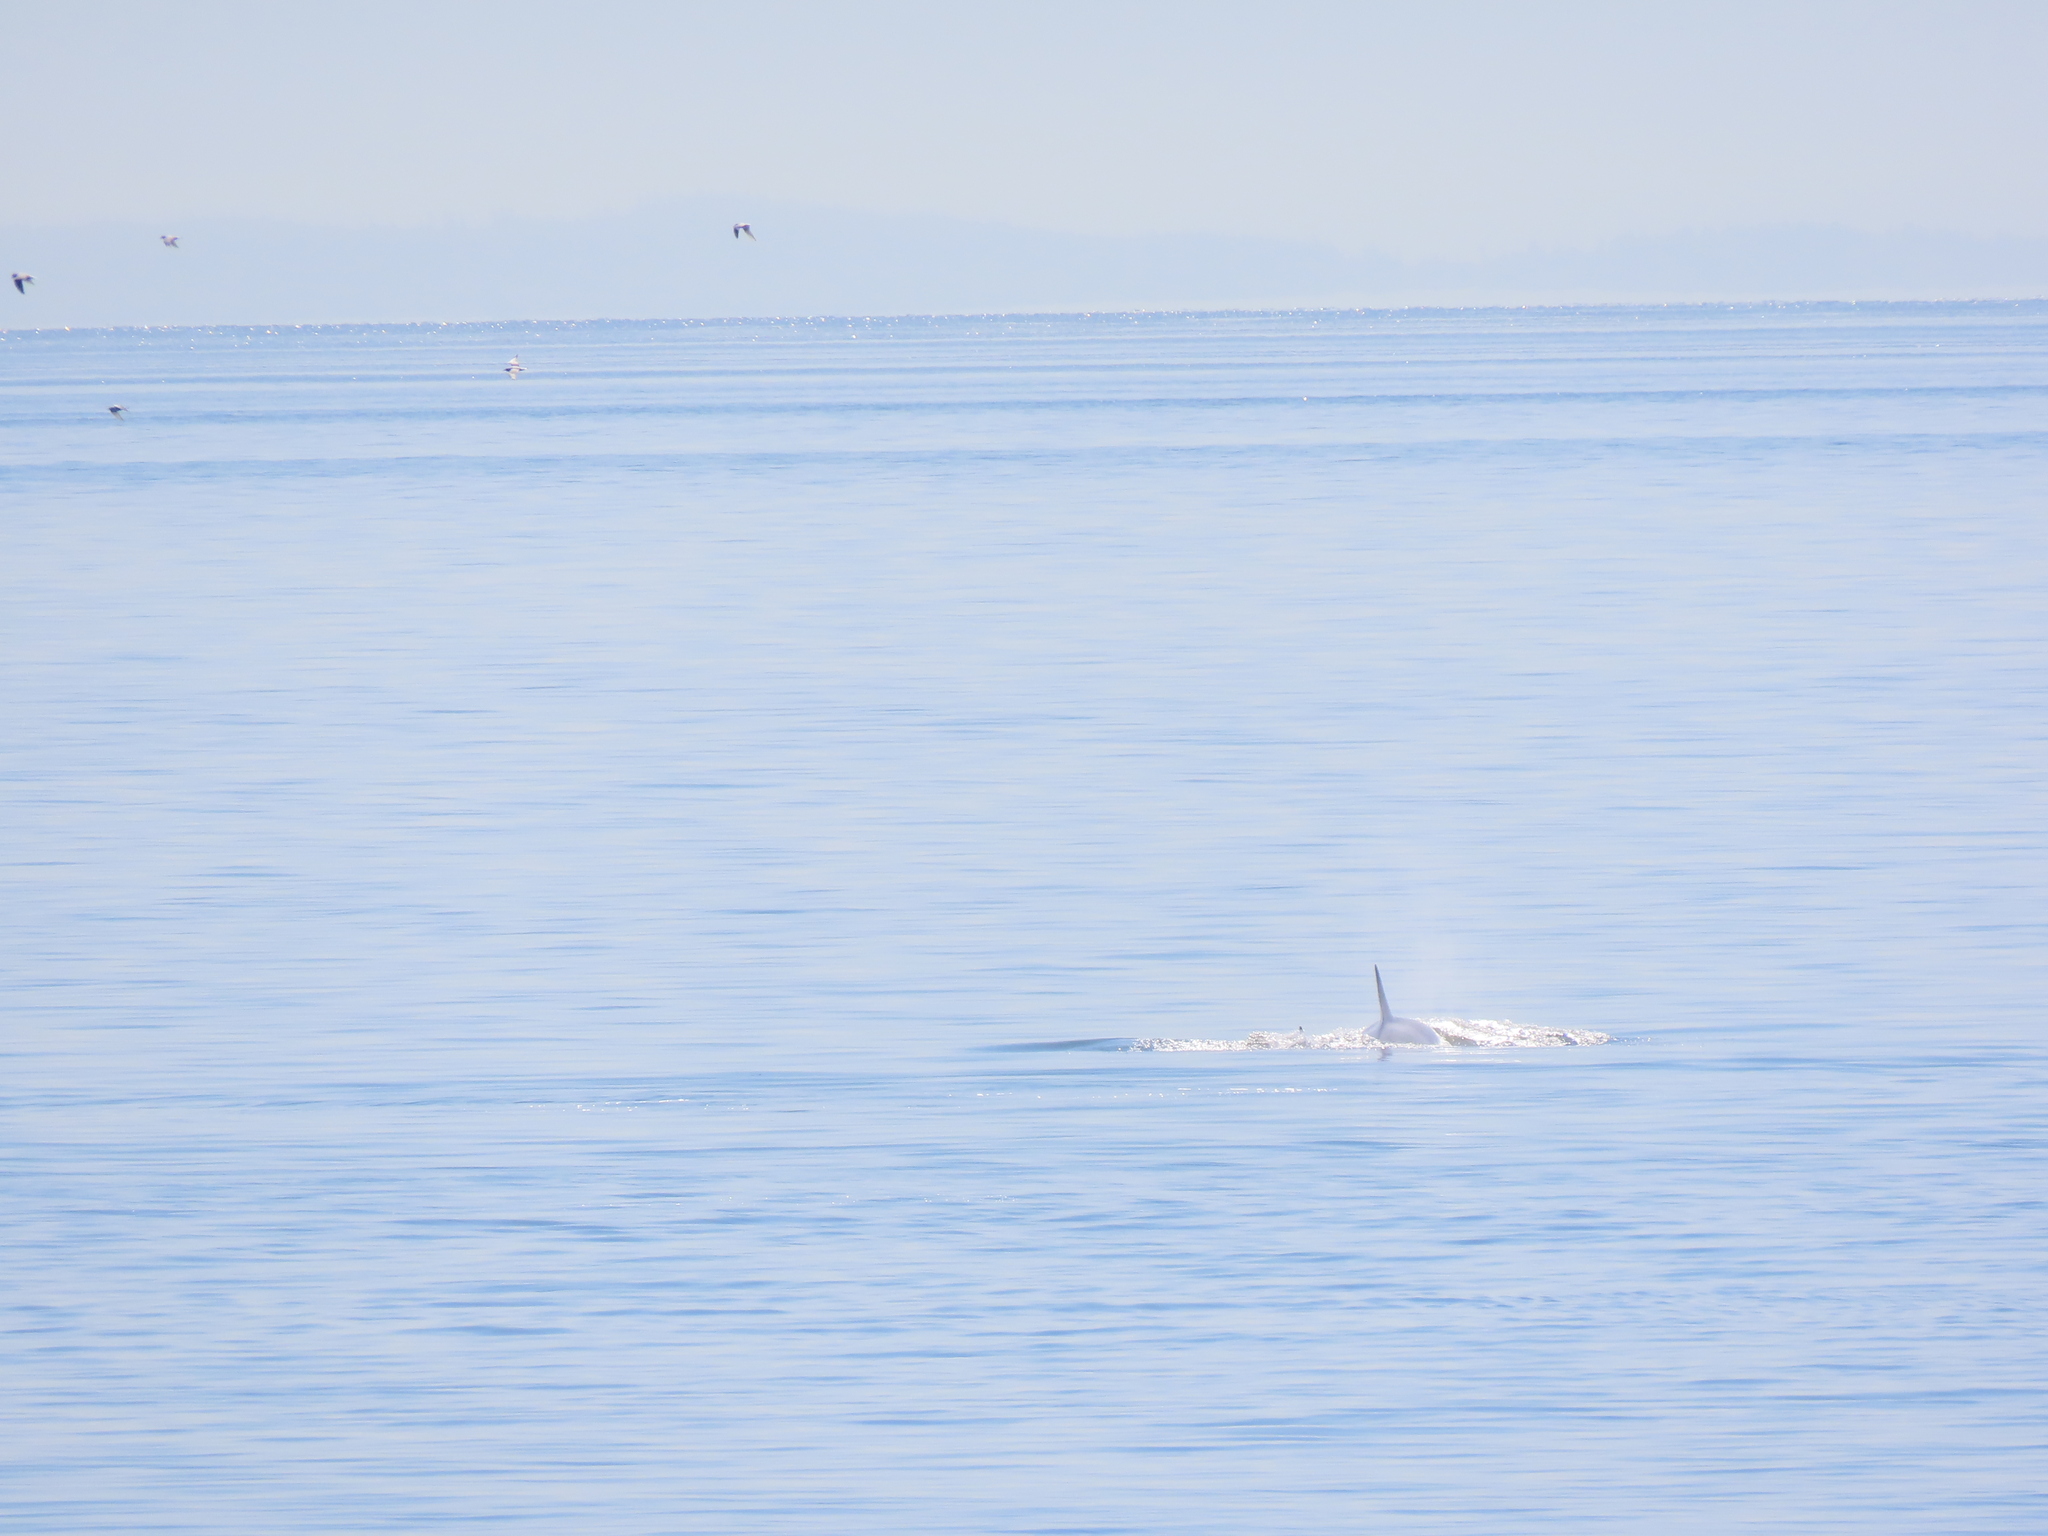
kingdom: Animalia
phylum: Chordata
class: Mammalia
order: Cetacea
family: Delphinidae
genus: Orcinus
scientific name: Orcinus orca
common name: Killer whale
